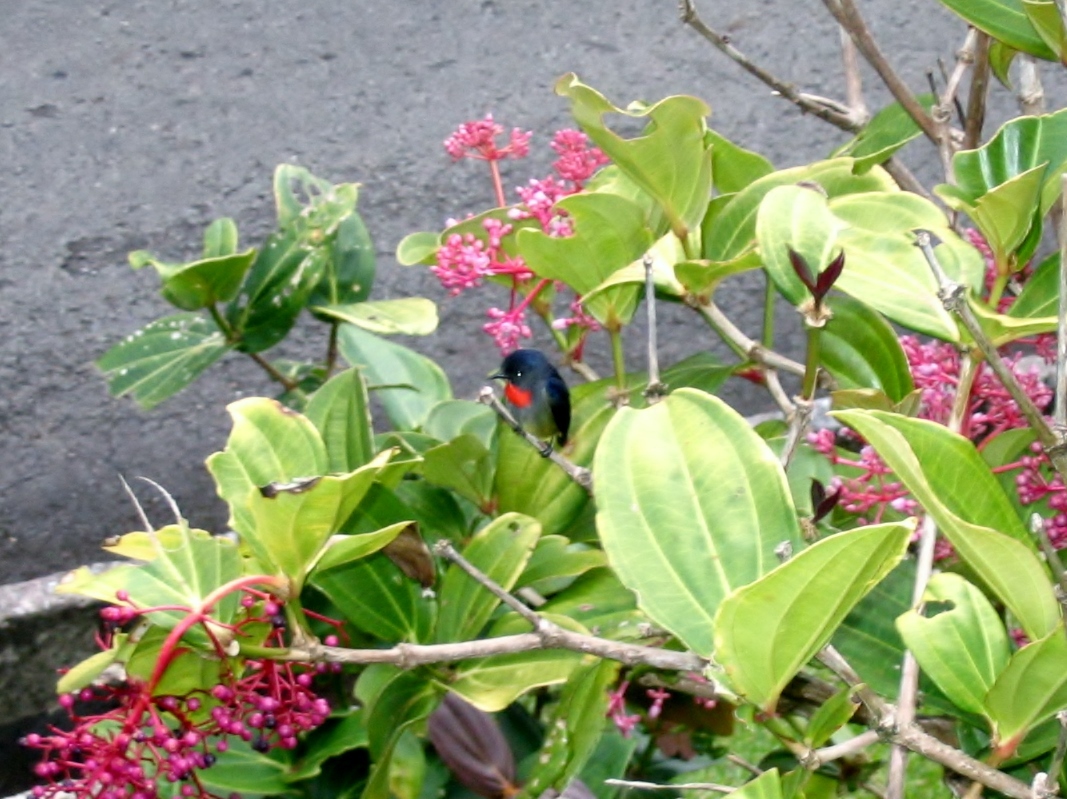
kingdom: Animalia
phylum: Chordata
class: Aves
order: Passeriformes
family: Dicaeidae
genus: Dicaeum
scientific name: Dicaeum monticolum
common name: Black-sided flowerpecker
